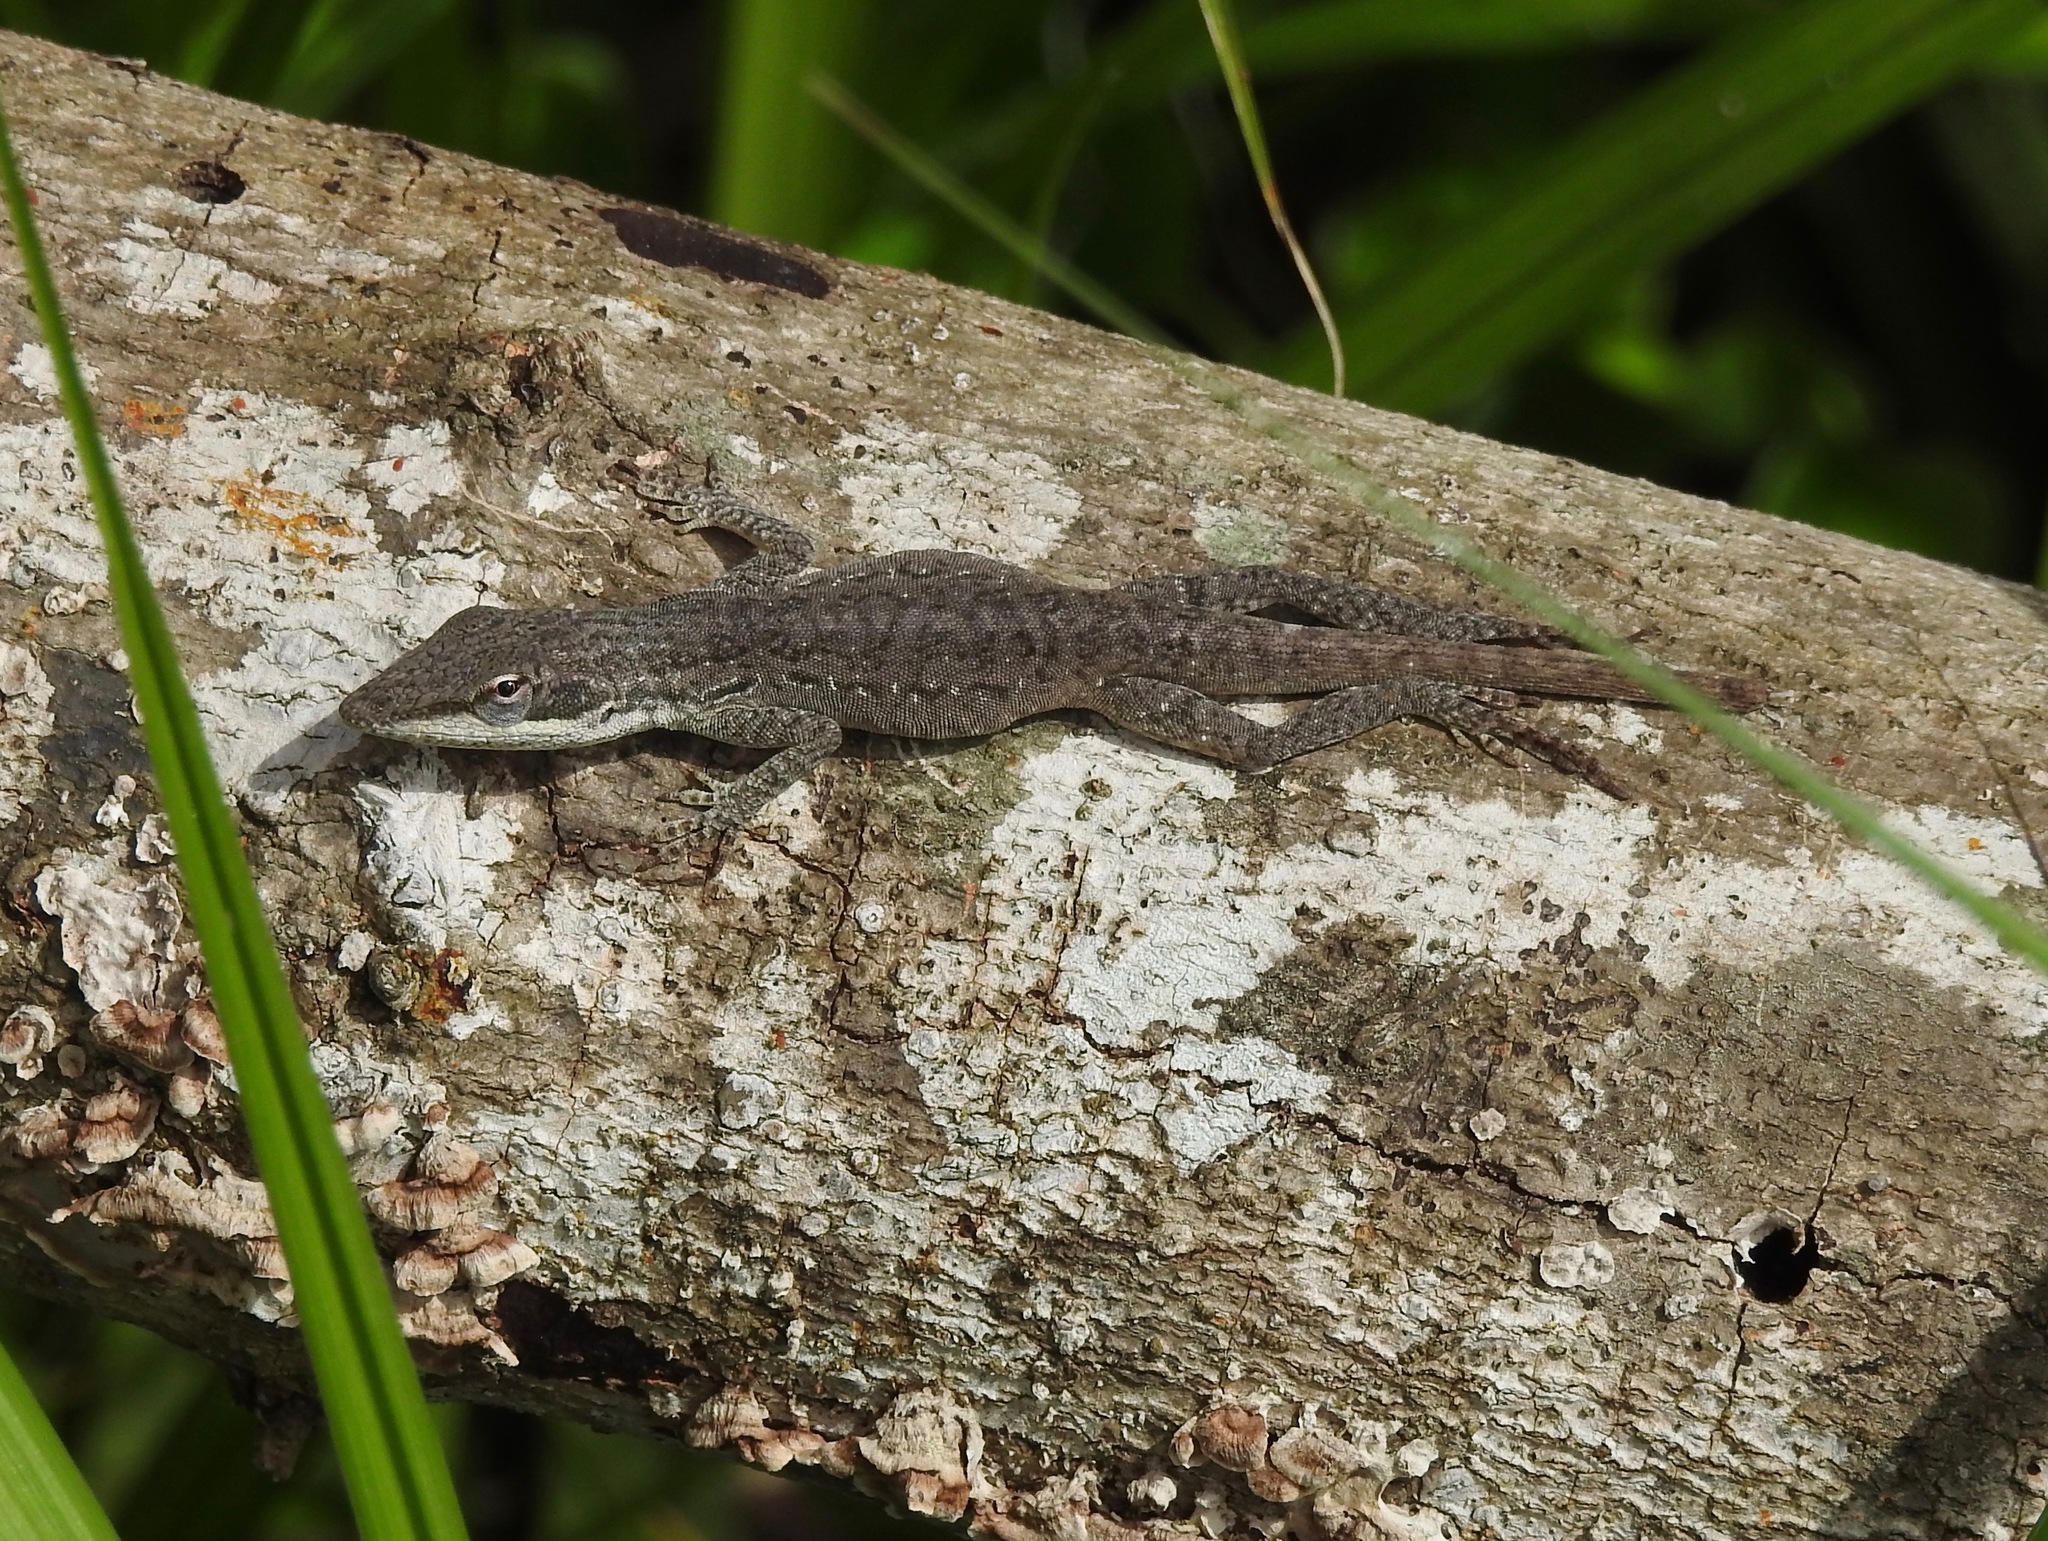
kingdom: Animalia
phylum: Chordata
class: Squamata
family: Dactyloidae
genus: Anolis
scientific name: Anolis carolinensis
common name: Green anole
